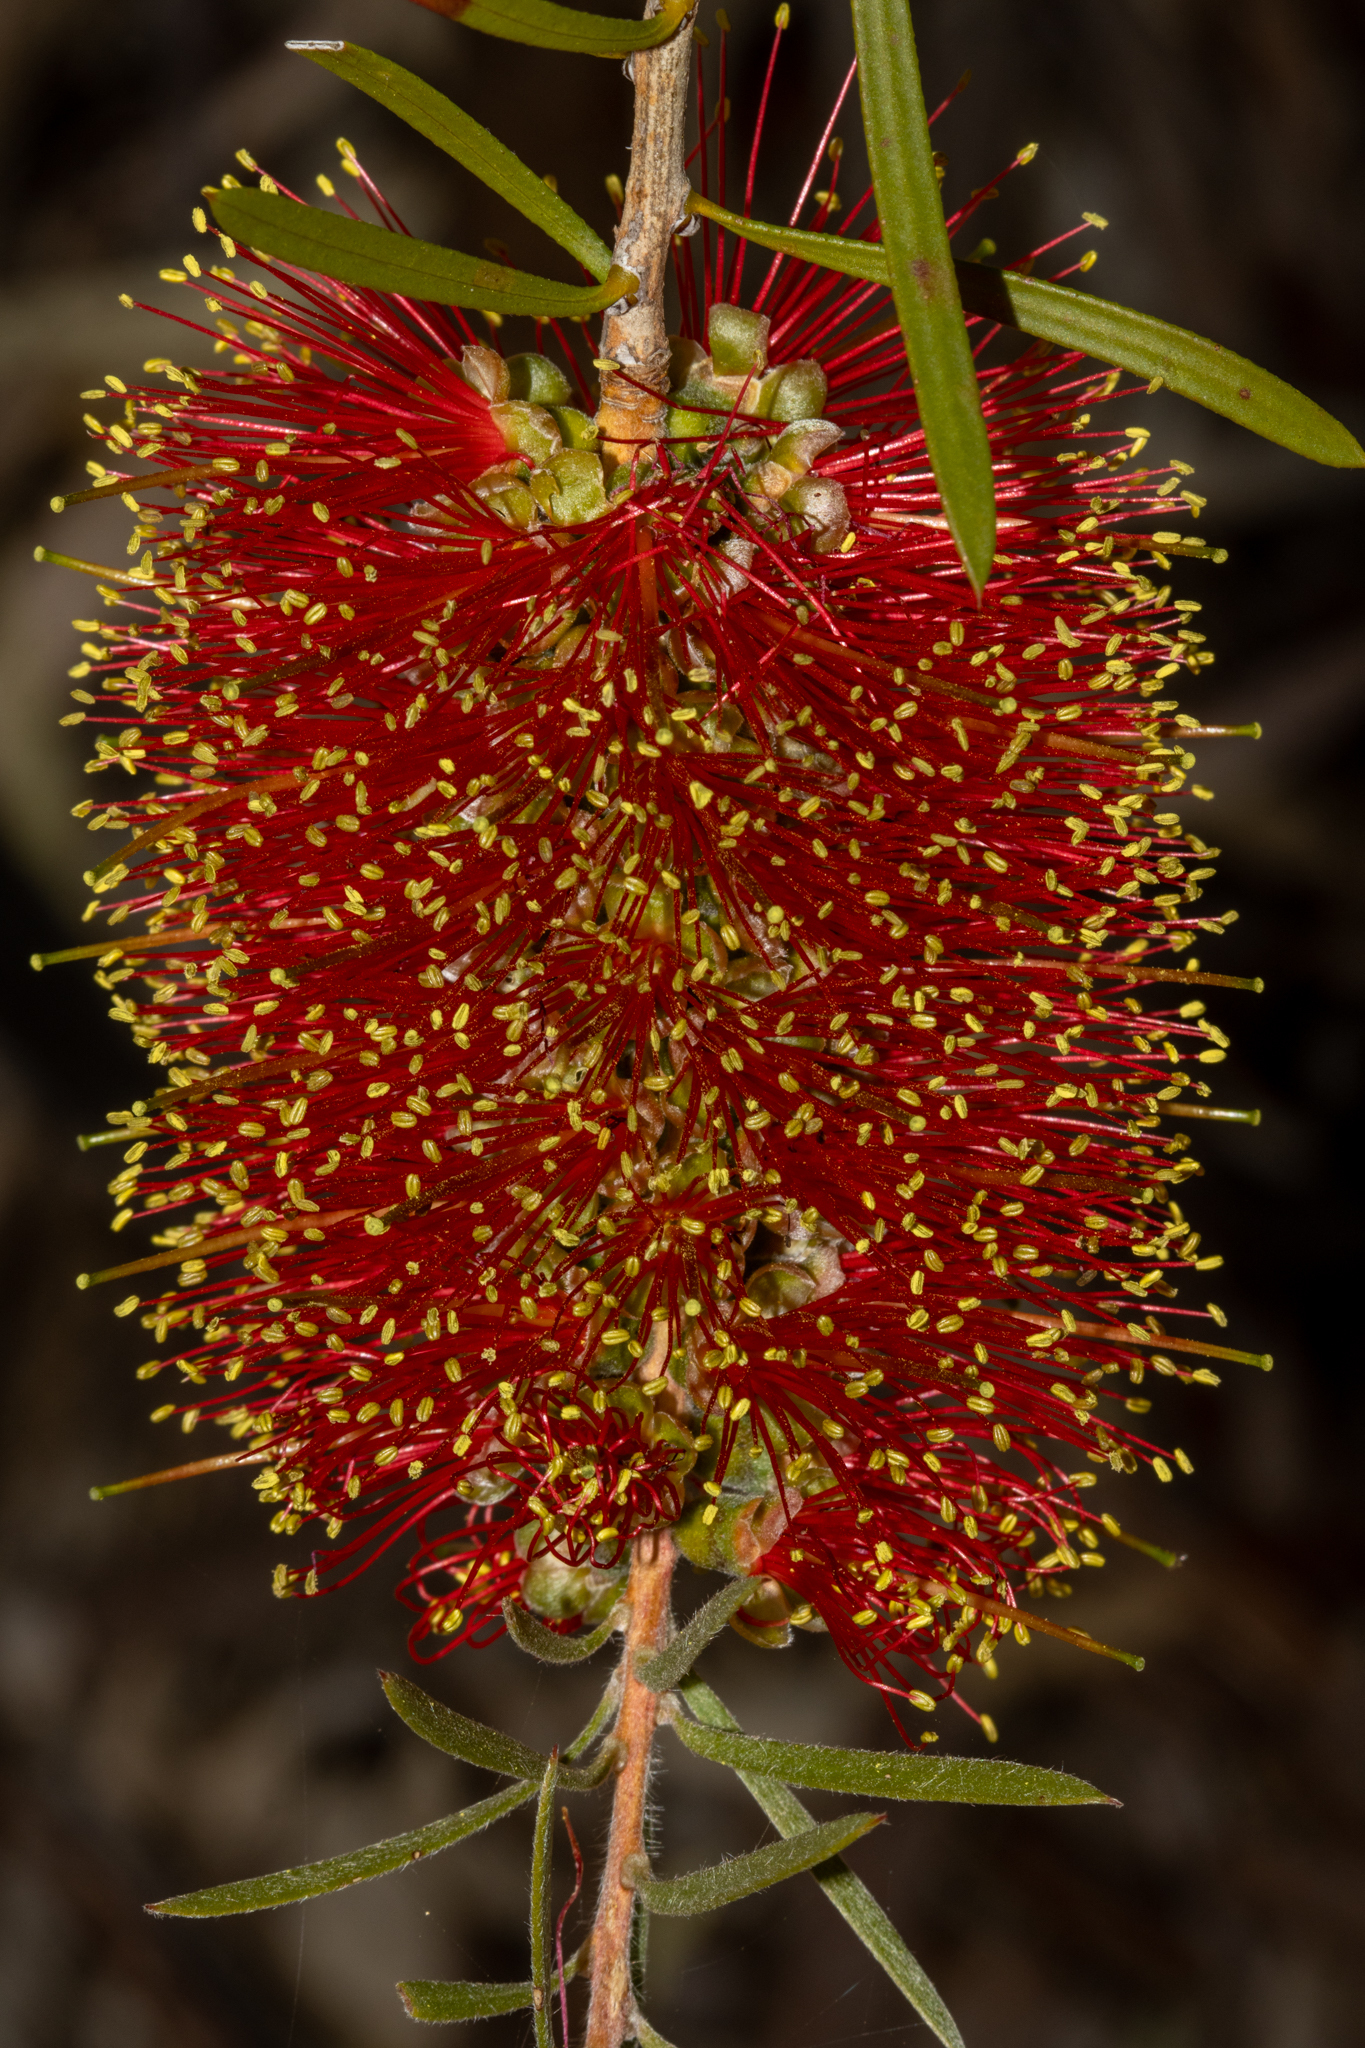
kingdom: Plantae
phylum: Tracheophyta
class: Magnoliopsida
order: Myrtales
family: Myrtaceae
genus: Callistemon
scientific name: Callistemon rugulosus
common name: Scarlet bottlebrush
